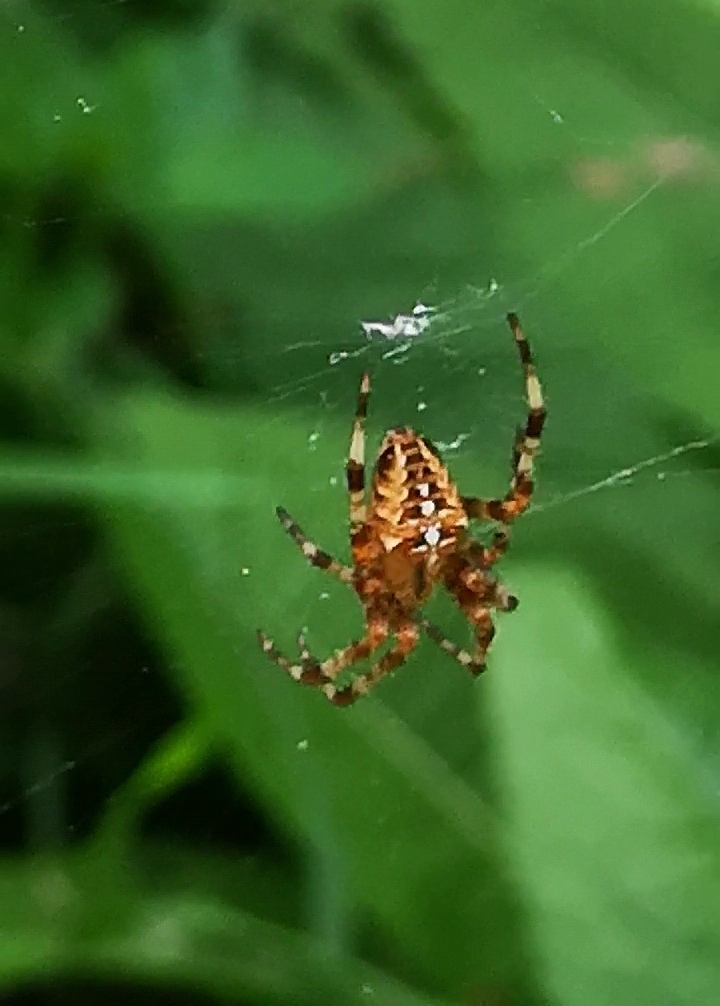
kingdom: Animalia
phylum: Arthropoda
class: Arachnida
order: Araneae
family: Araneidae
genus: Araneus
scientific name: Araneus diadematus
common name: Cross orbweaver
